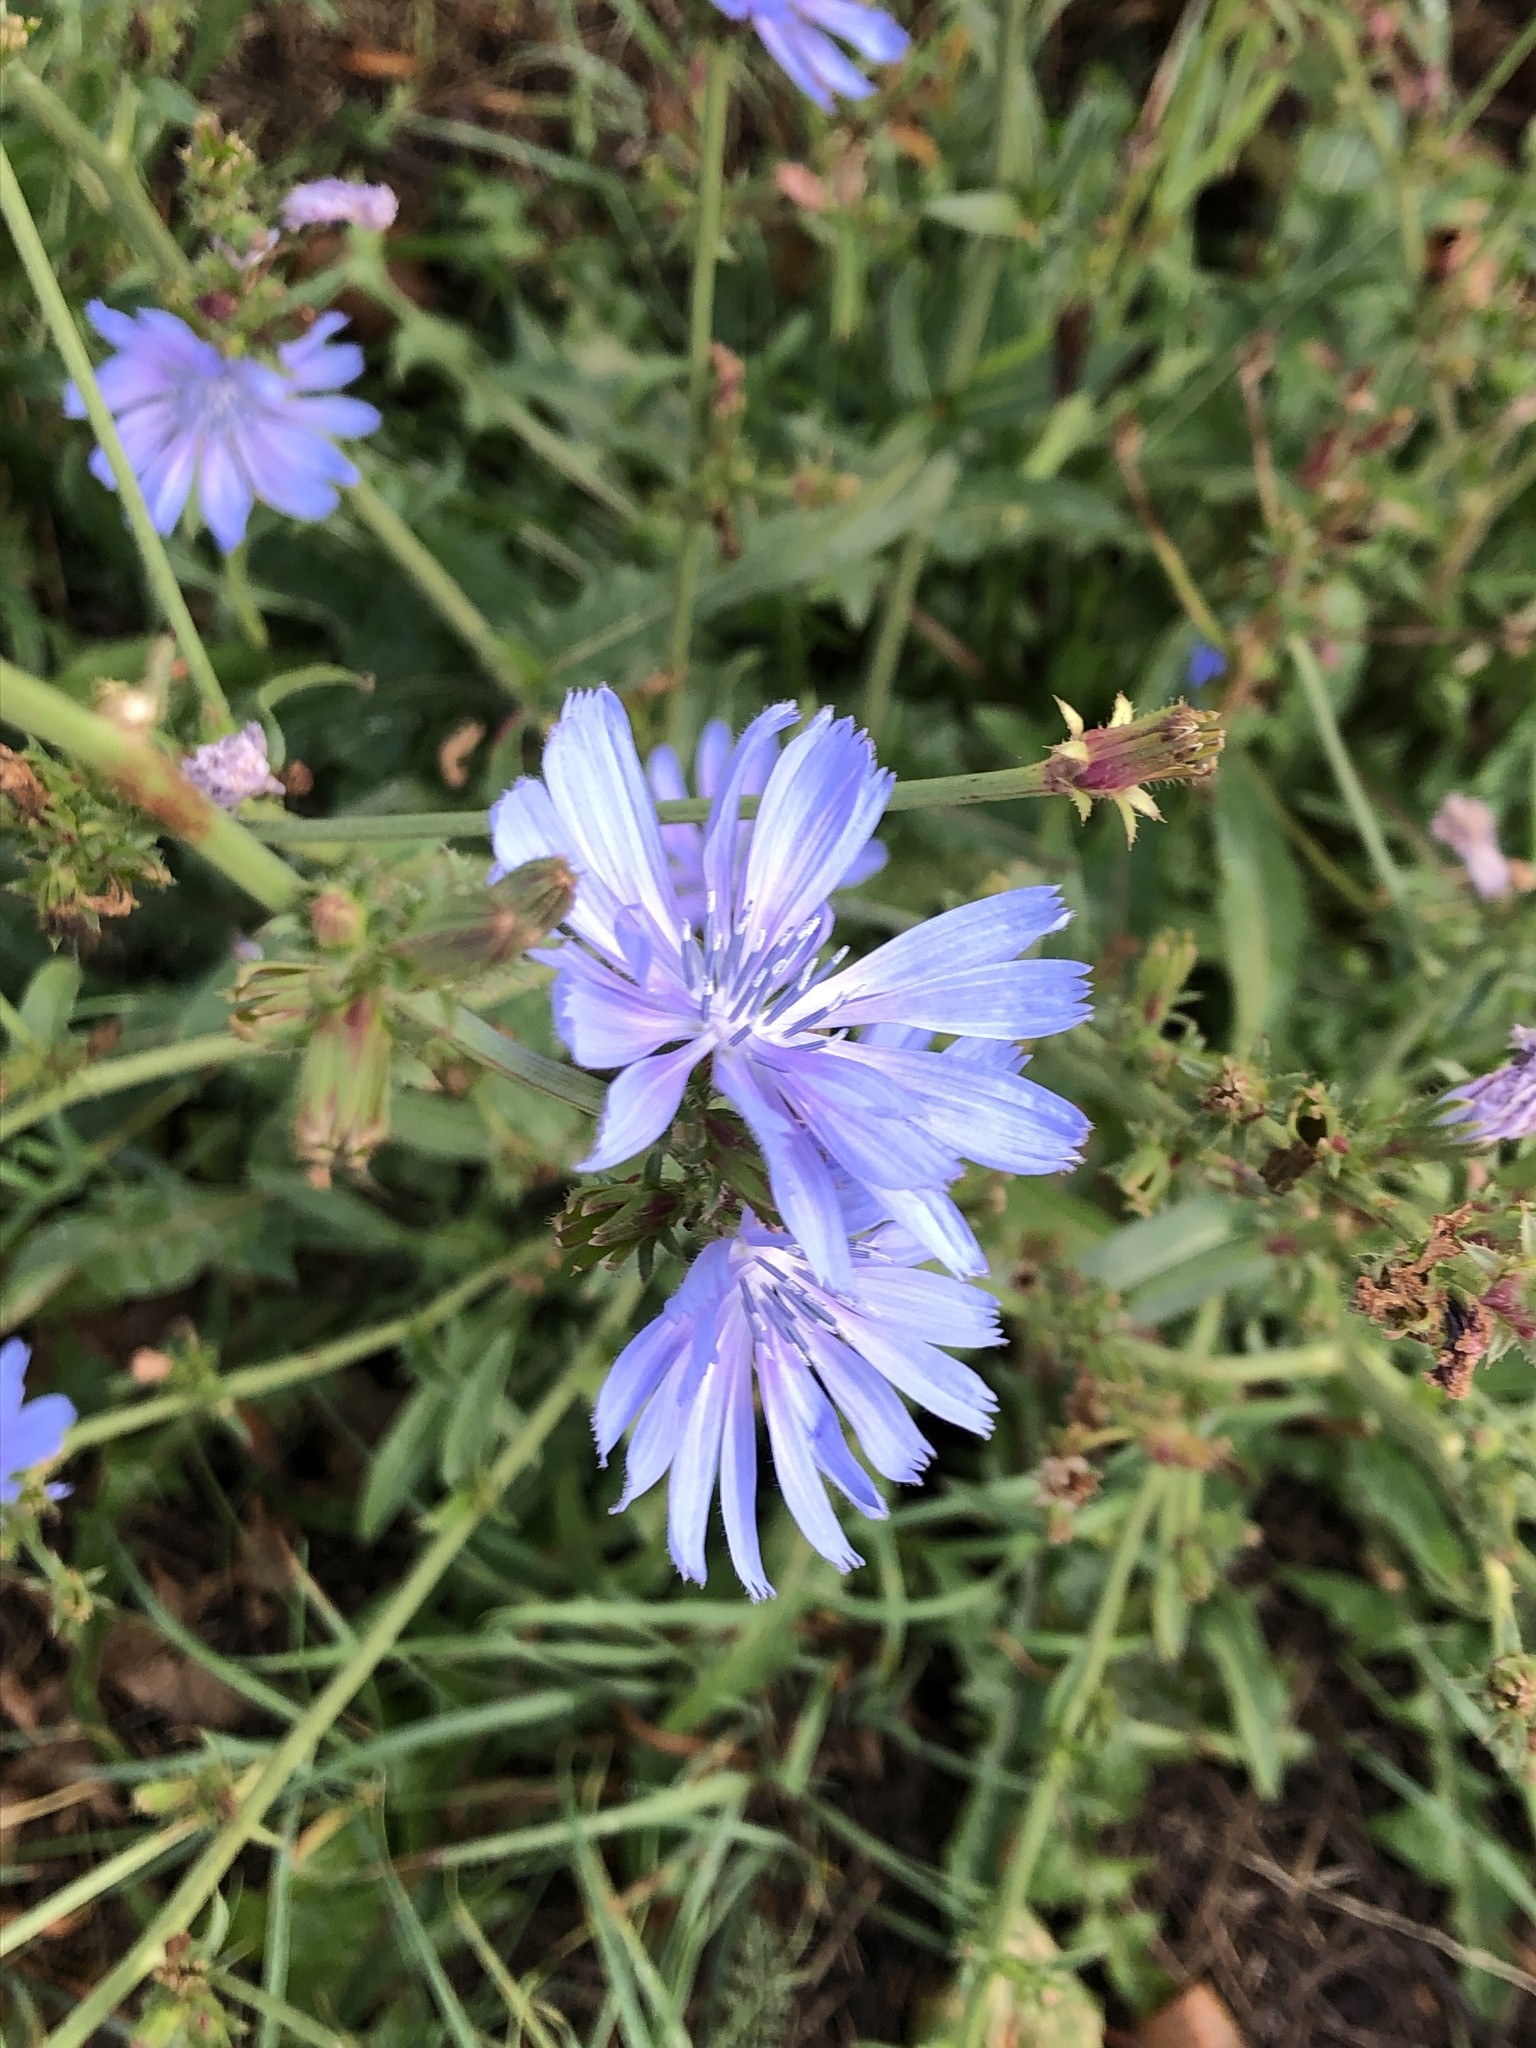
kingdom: Plantae
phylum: Tracheophyta
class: Magnoliopsida
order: Asterales
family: Asteraceae
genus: Cichorium
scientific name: Cichorium intybus
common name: Chicory
